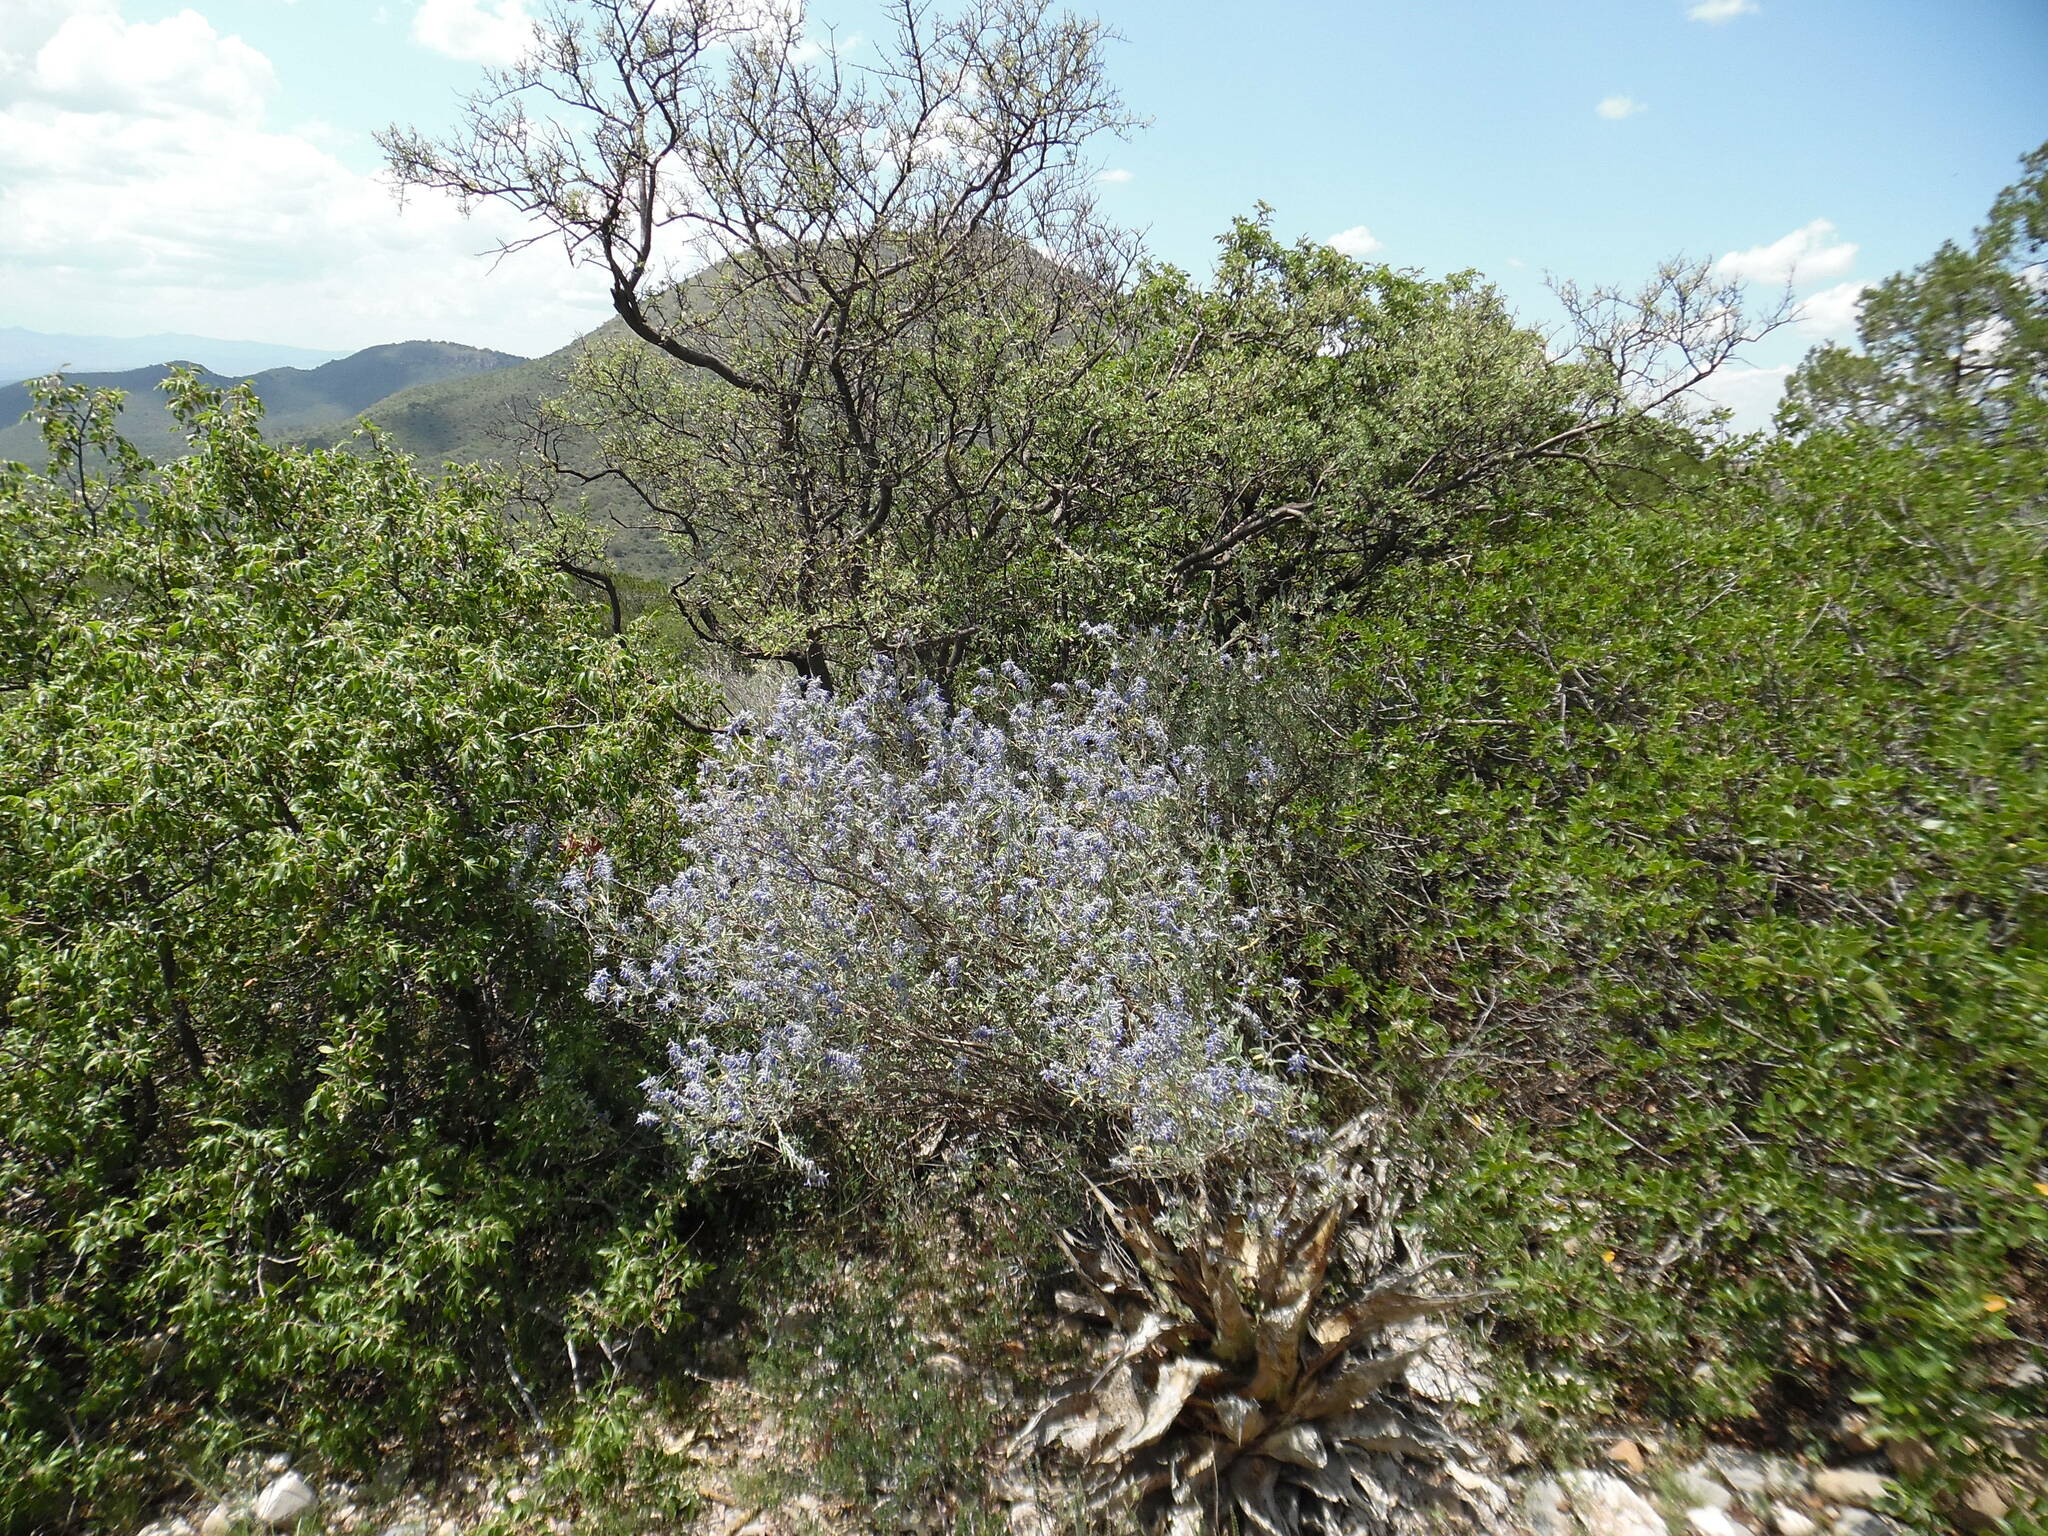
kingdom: Plantae
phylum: Tracheophyta
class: Magnoliopsida
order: Lamiales
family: Lamiaceae
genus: Salvia
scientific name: Salvia coulteri
